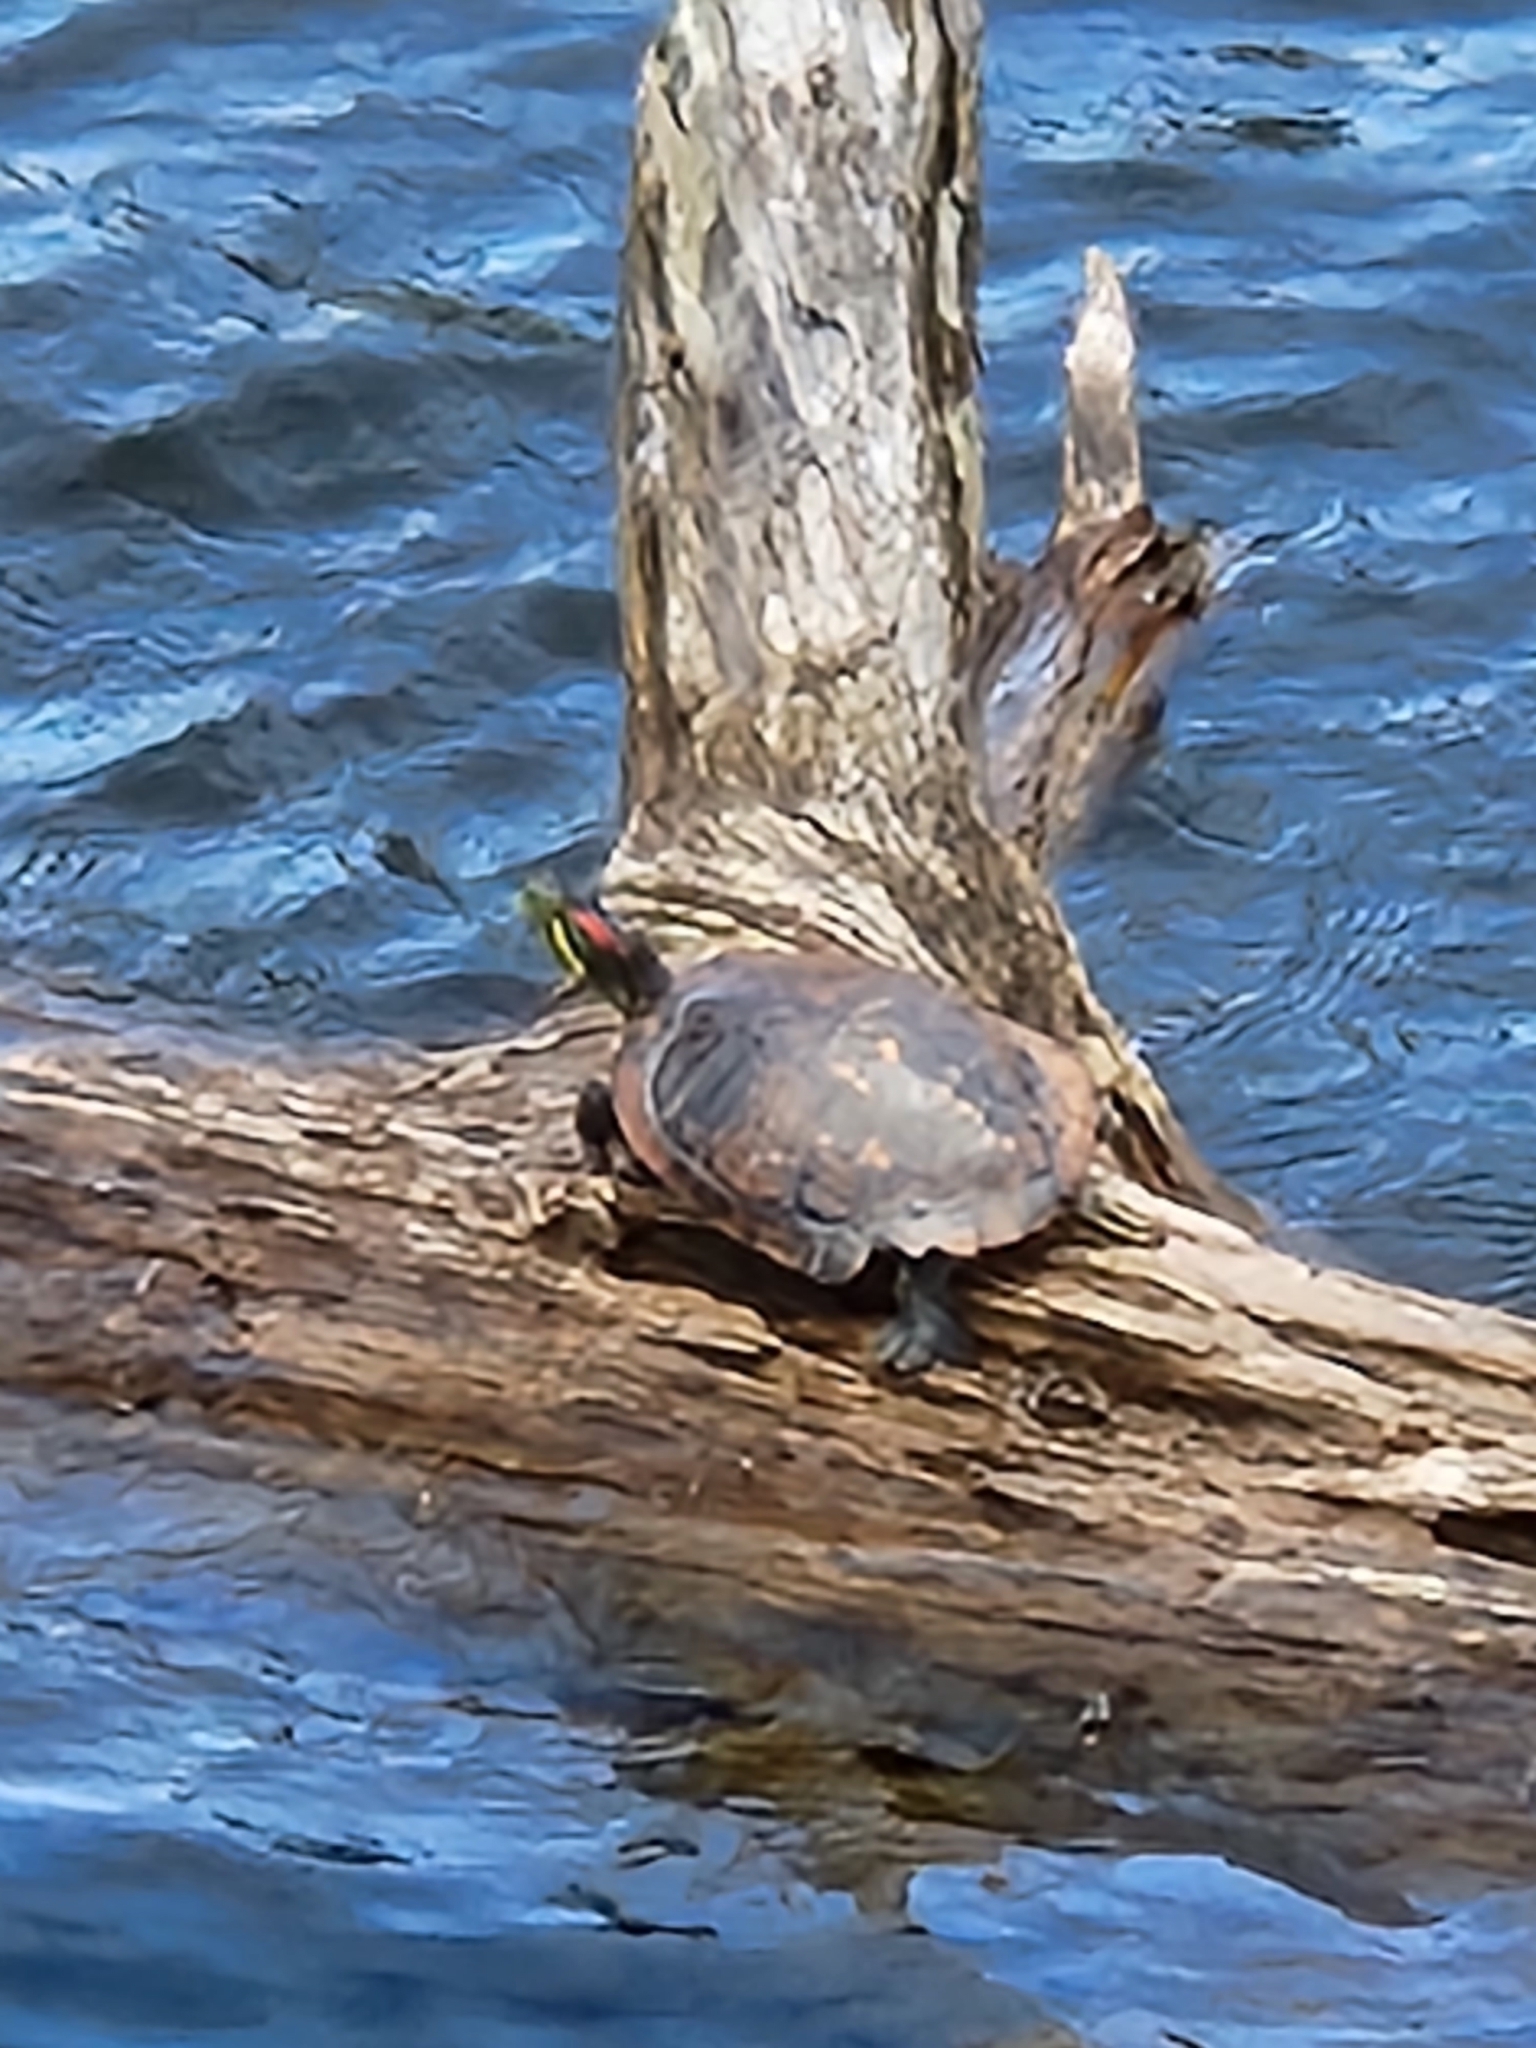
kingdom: Animalia
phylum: Chordata
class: Testudines
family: Emydidae
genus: Trachemys
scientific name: Trachemys scripta
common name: Slider
